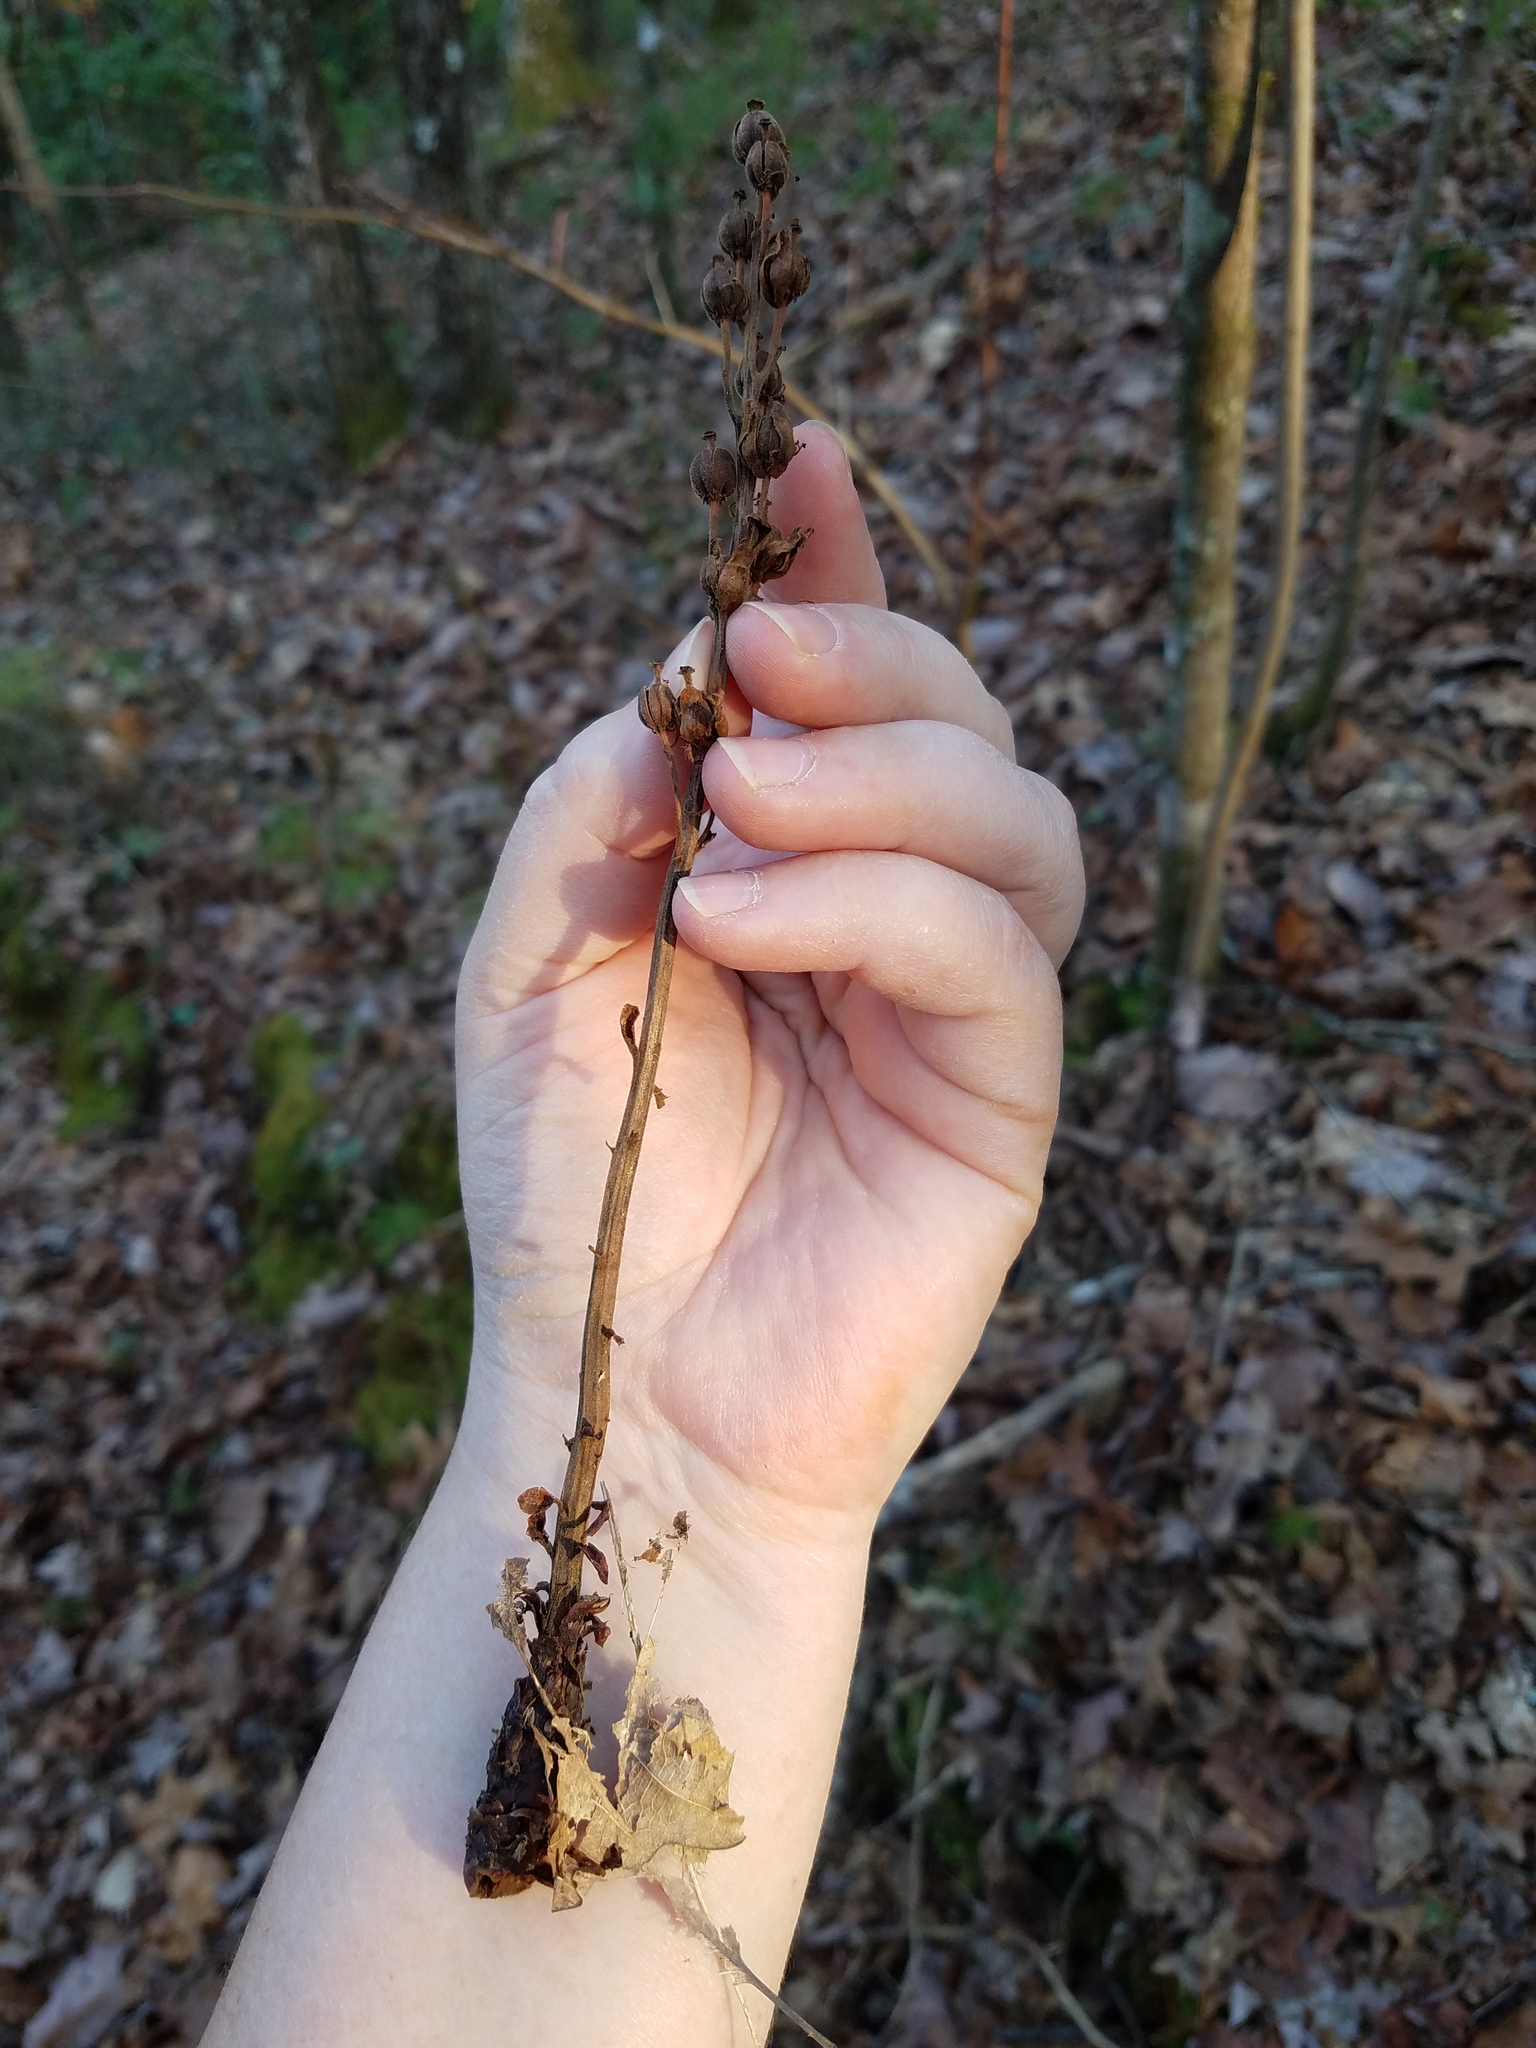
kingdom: Plantae
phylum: Tracheophyta
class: Magnoliopsida
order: Ericales
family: Ericaceae
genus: Hypopitys
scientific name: Hypopitys monotropa
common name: Yellow bird's-nest
